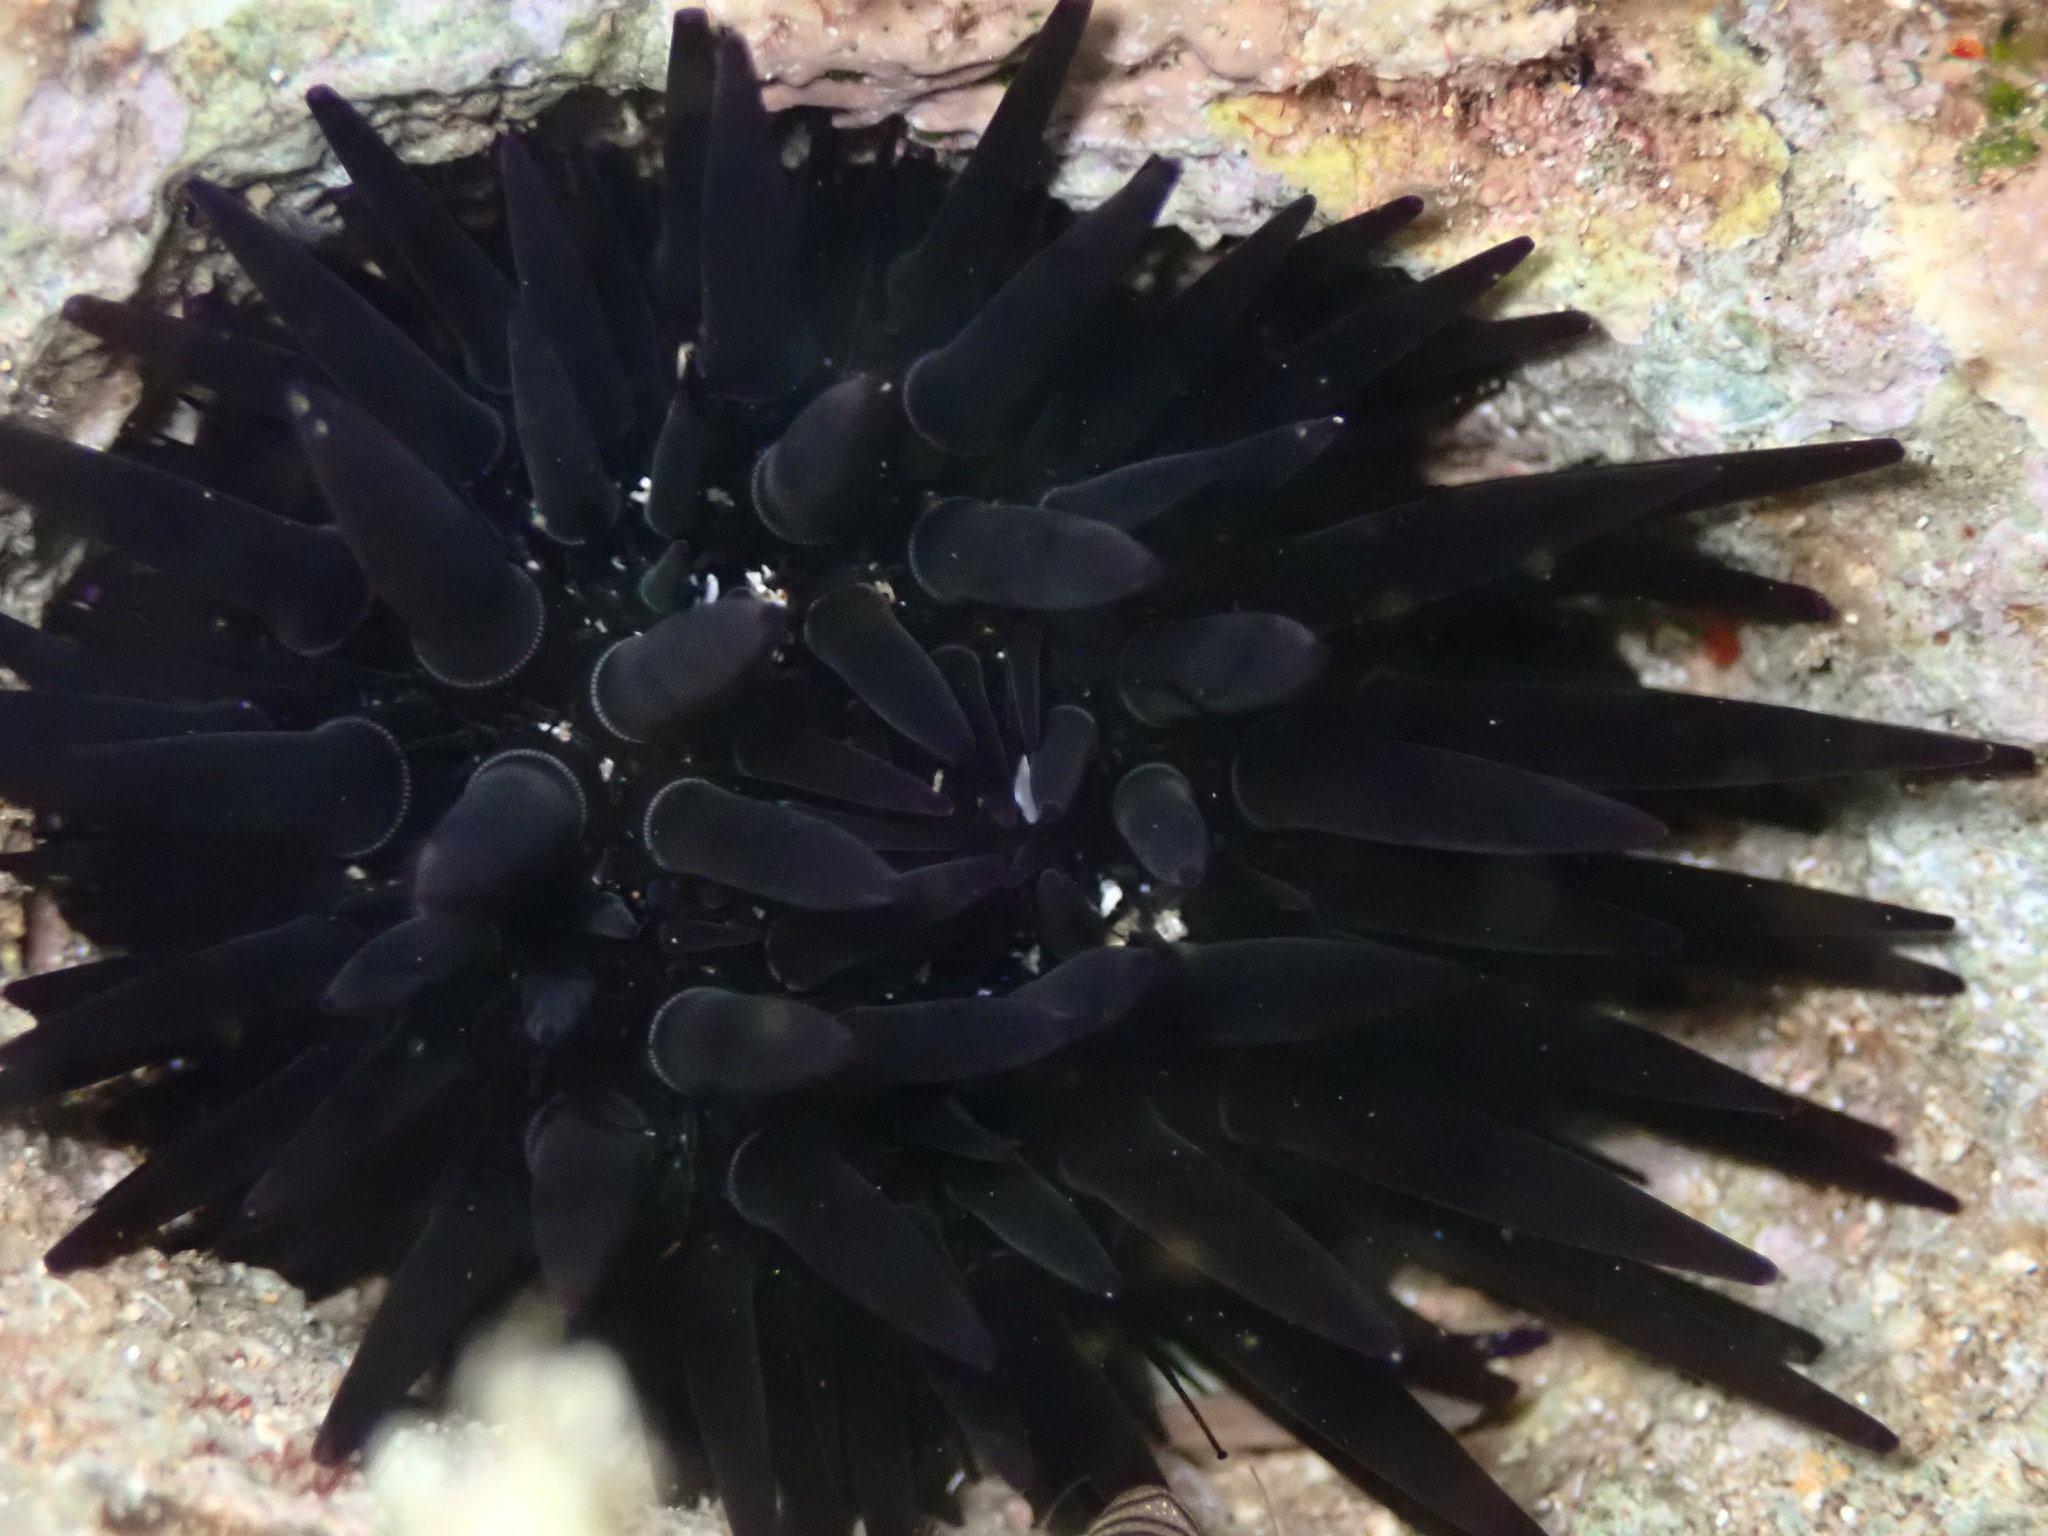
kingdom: Animalia
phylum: Echinodermata
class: Echinoidea
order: Camarodonta
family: Echinometridae
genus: Echinometra
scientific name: Echinometra oblonga
